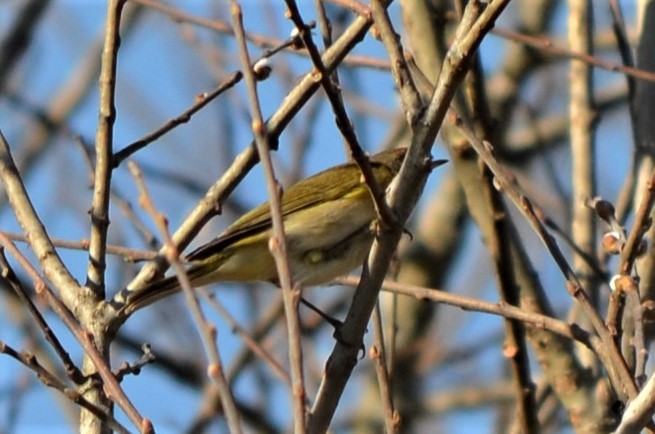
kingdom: Animalia
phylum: Chordata
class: Aves
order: Passeriformes
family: Phylloscopidae
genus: Phylloscopus
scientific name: Phylloscopus collybita
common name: Common chiffchaff
